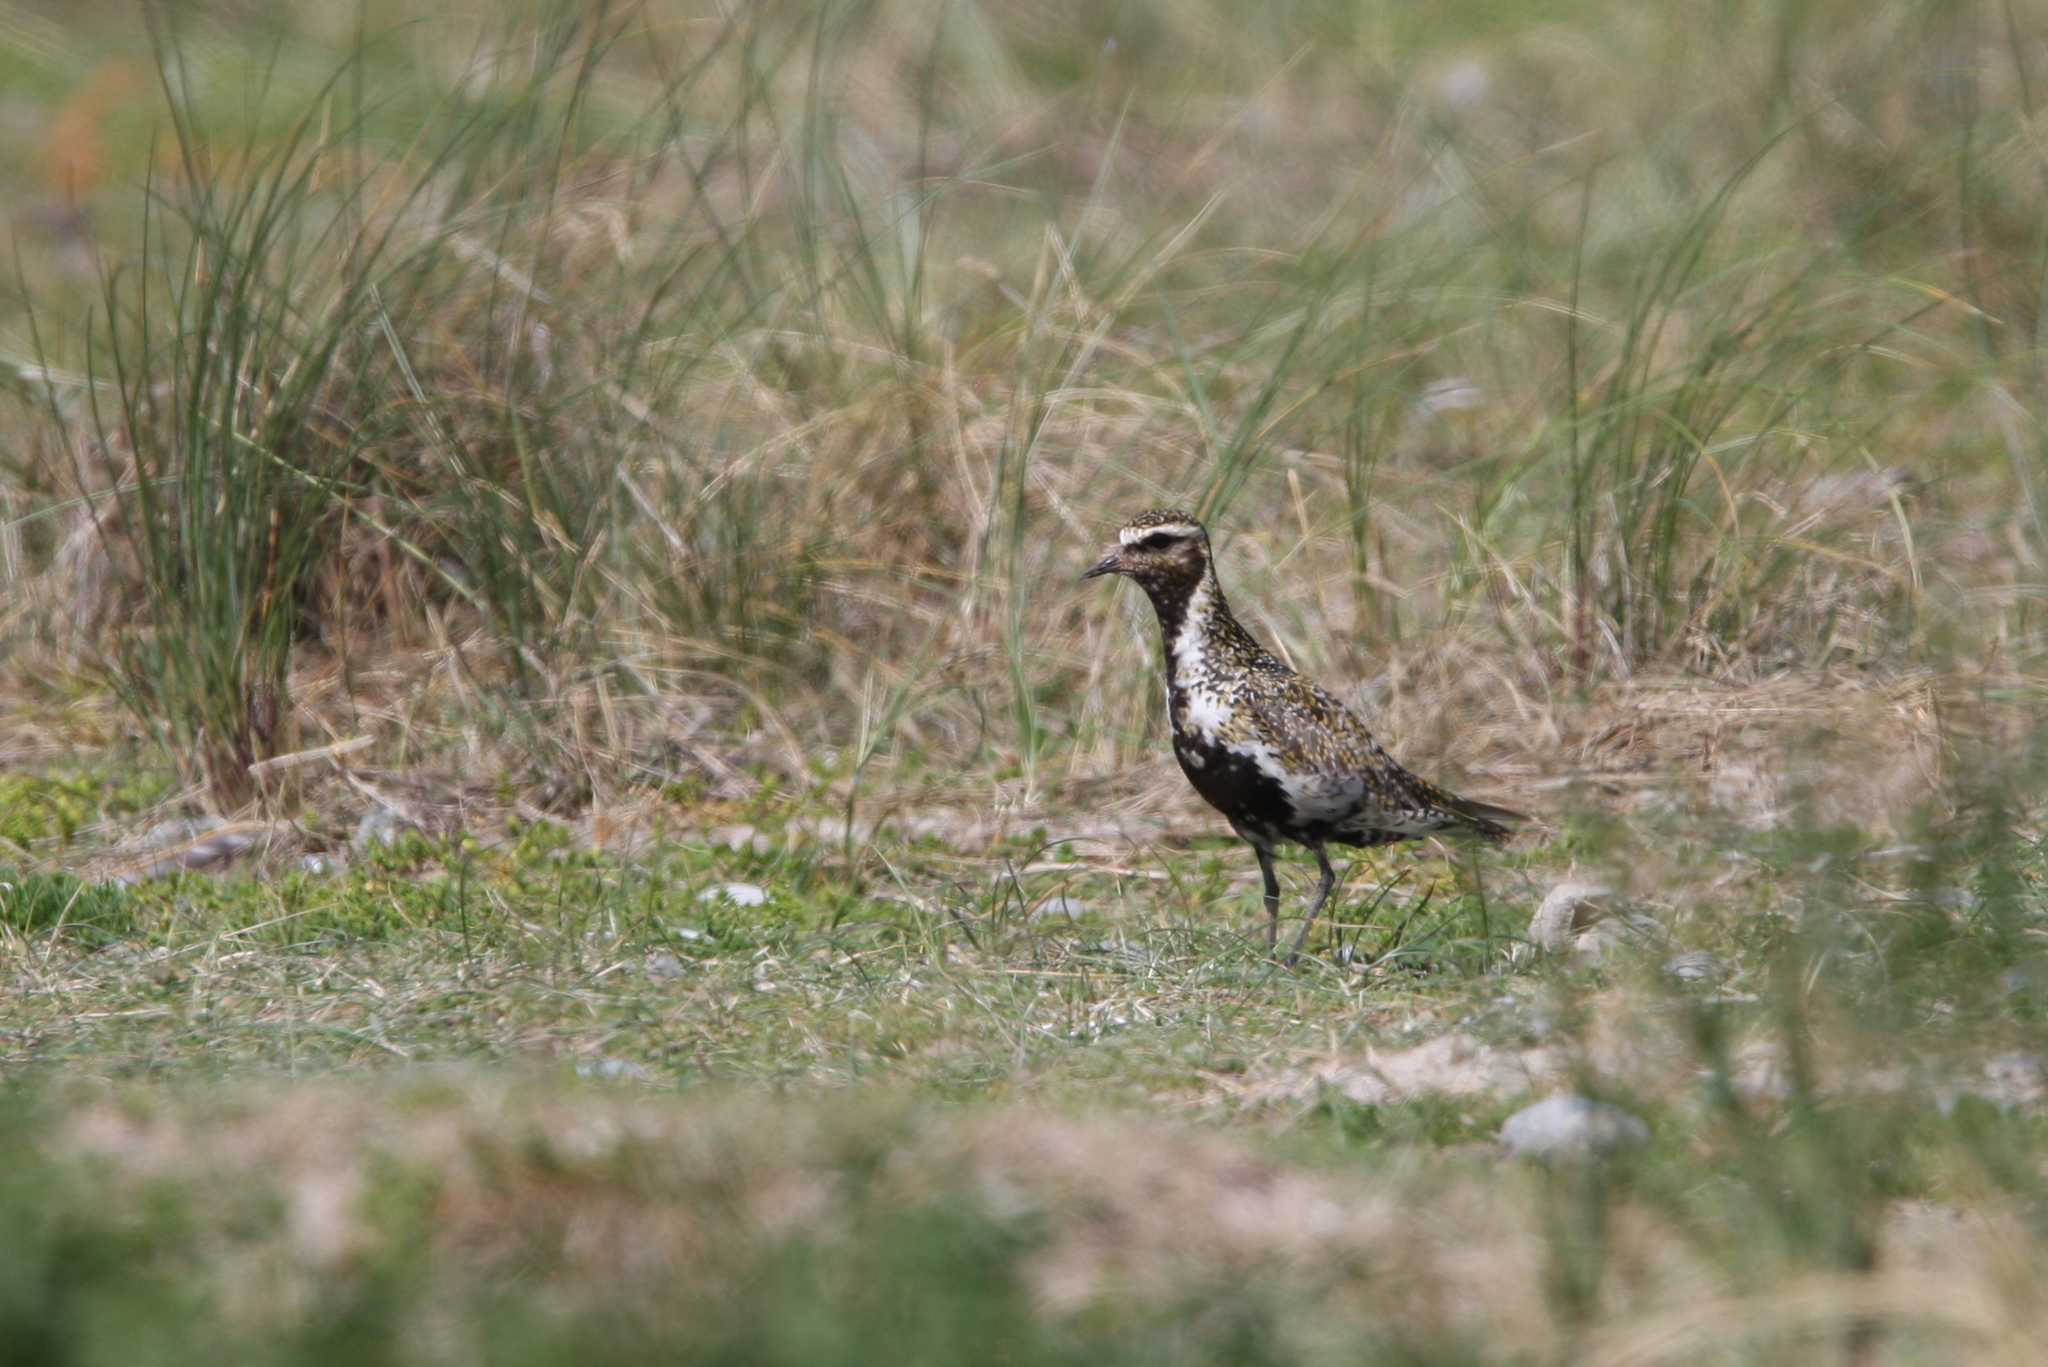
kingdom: Animalia
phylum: Chordata
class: Aves
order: Charadriiformes
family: Charadriidae
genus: Pluvialis
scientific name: Pluvialis apricaria
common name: European golden plover
